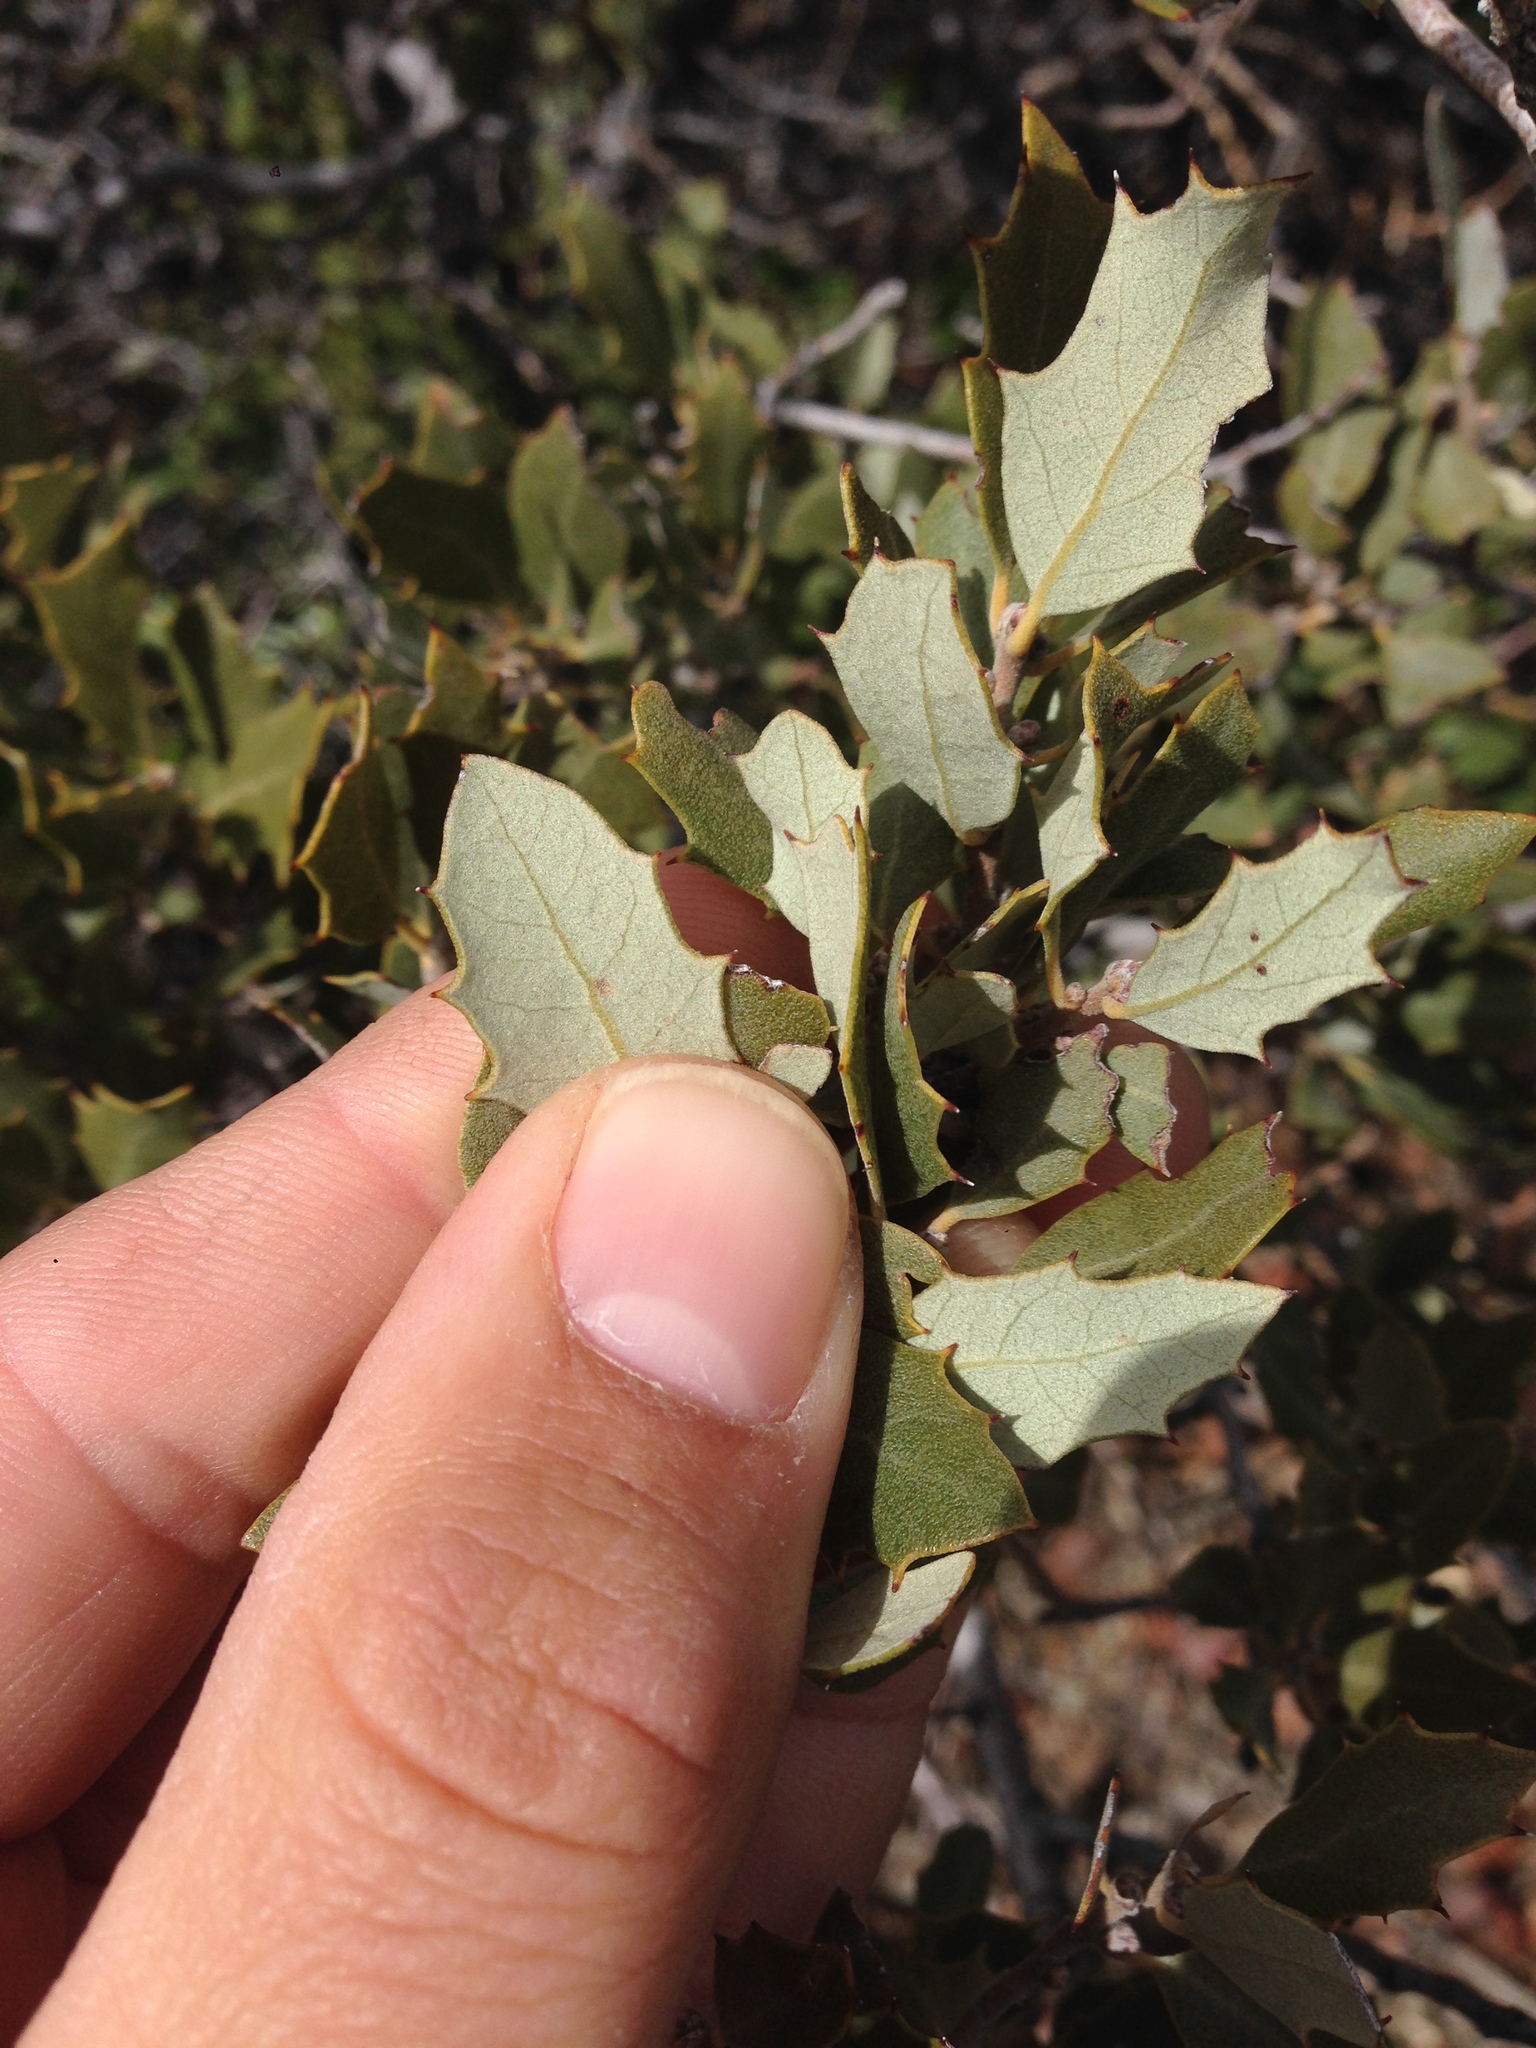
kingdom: Plantae
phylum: Tracheophyta
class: Magnoliopsida
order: Fagales
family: Fagaceae
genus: Quercus
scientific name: Quercus cornelius-mulleri
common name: Muller oak
